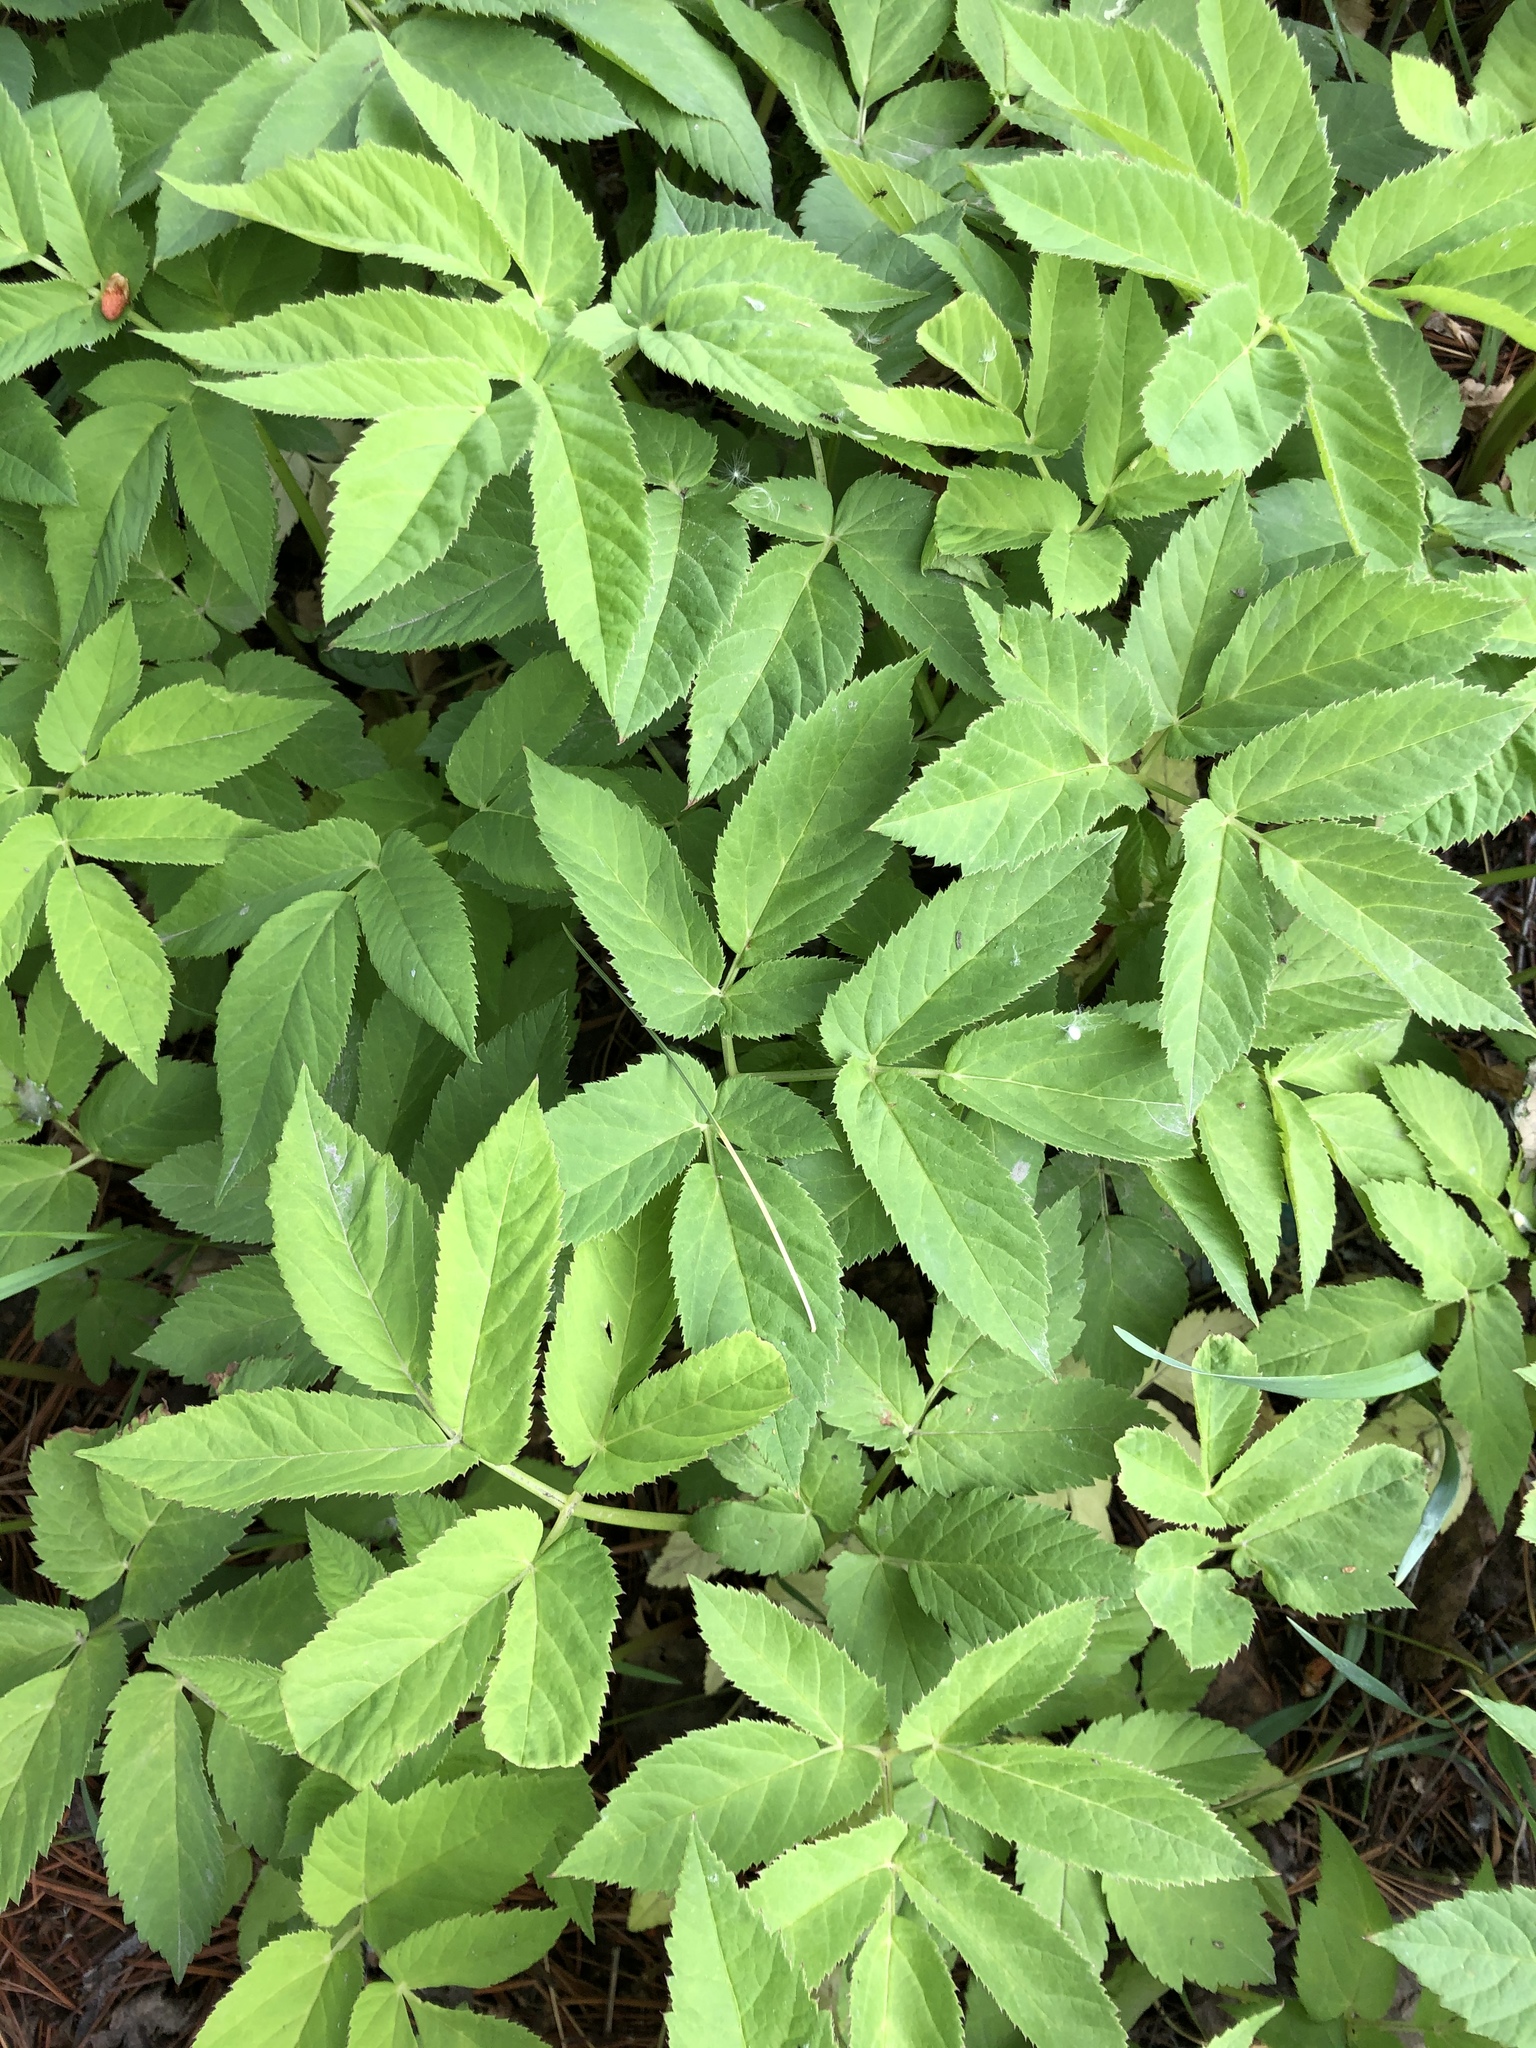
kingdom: Plantae
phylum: Tracheophyta
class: Magnoliopsida
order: Apiales
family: Apiaceae
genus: Aegopodium
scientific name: Aegopodium podagraria
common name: Ground-elder
